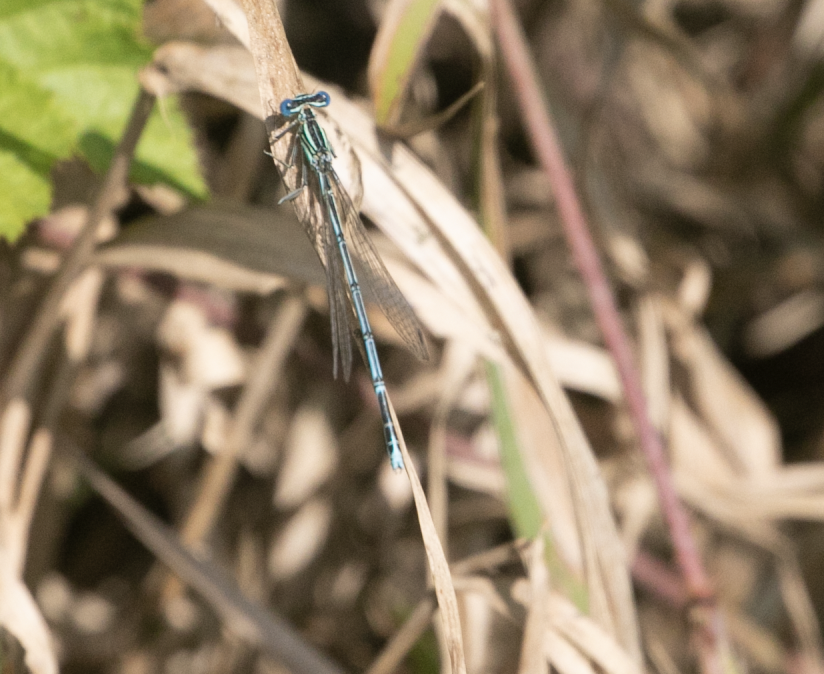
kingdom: Animalia
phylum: Arthropoda
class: Insecta
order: Odonata
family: Platycnemididae
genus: Platycnemis
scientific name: Platycnemis pennipes
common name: White-legged damselfly
